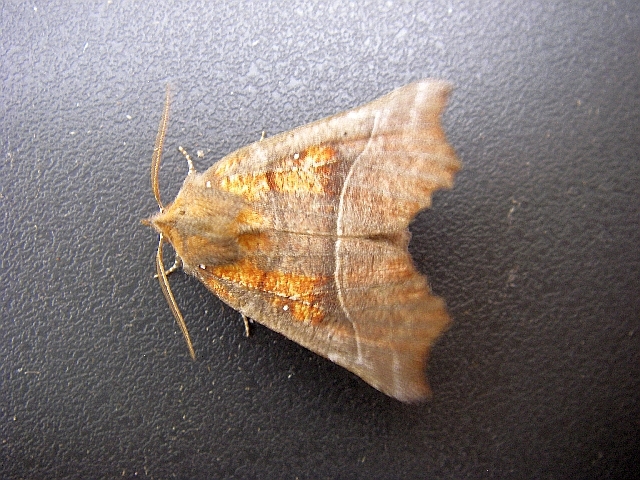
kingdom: Animalia
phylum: Arthropoda
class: Insecta
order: Lepidoptera
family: Erebidae
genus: Scoliopteryx
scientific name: Scoliopteryx libatrix
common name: Herald
